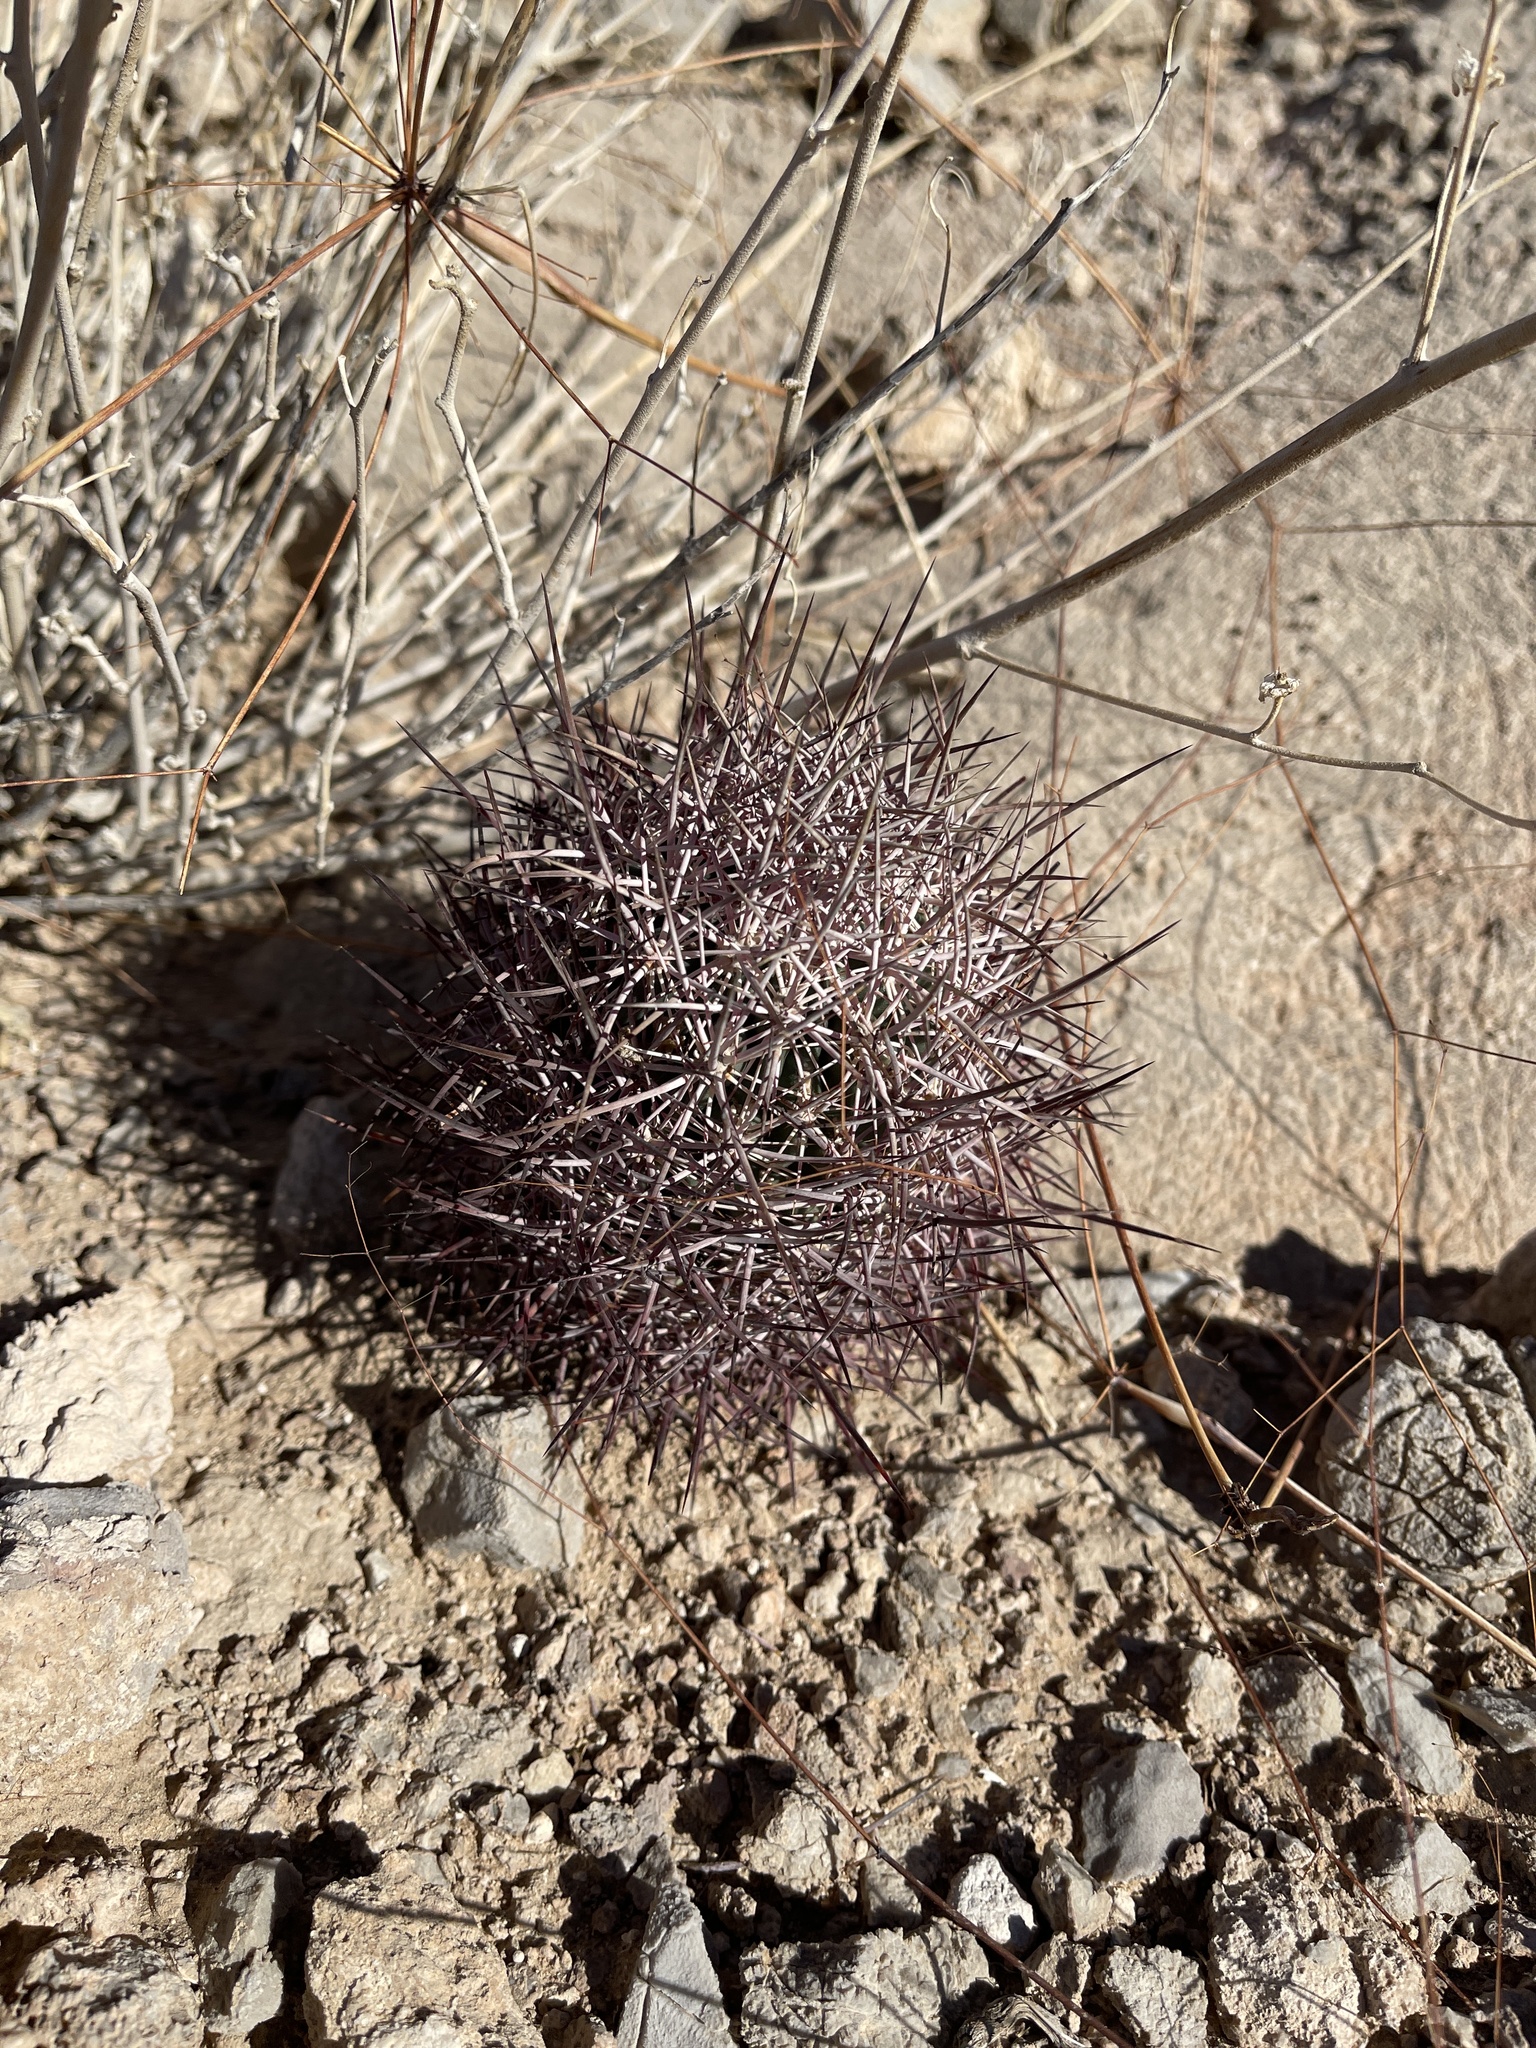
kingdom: Plantae
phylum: Tracheophyta
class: Magnoliopsida
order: Caryophyllales
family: Cactaceae
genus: Sclerocactus
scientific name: Sclerocactus johnsonii
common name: Eight-spine fishhook cactus
